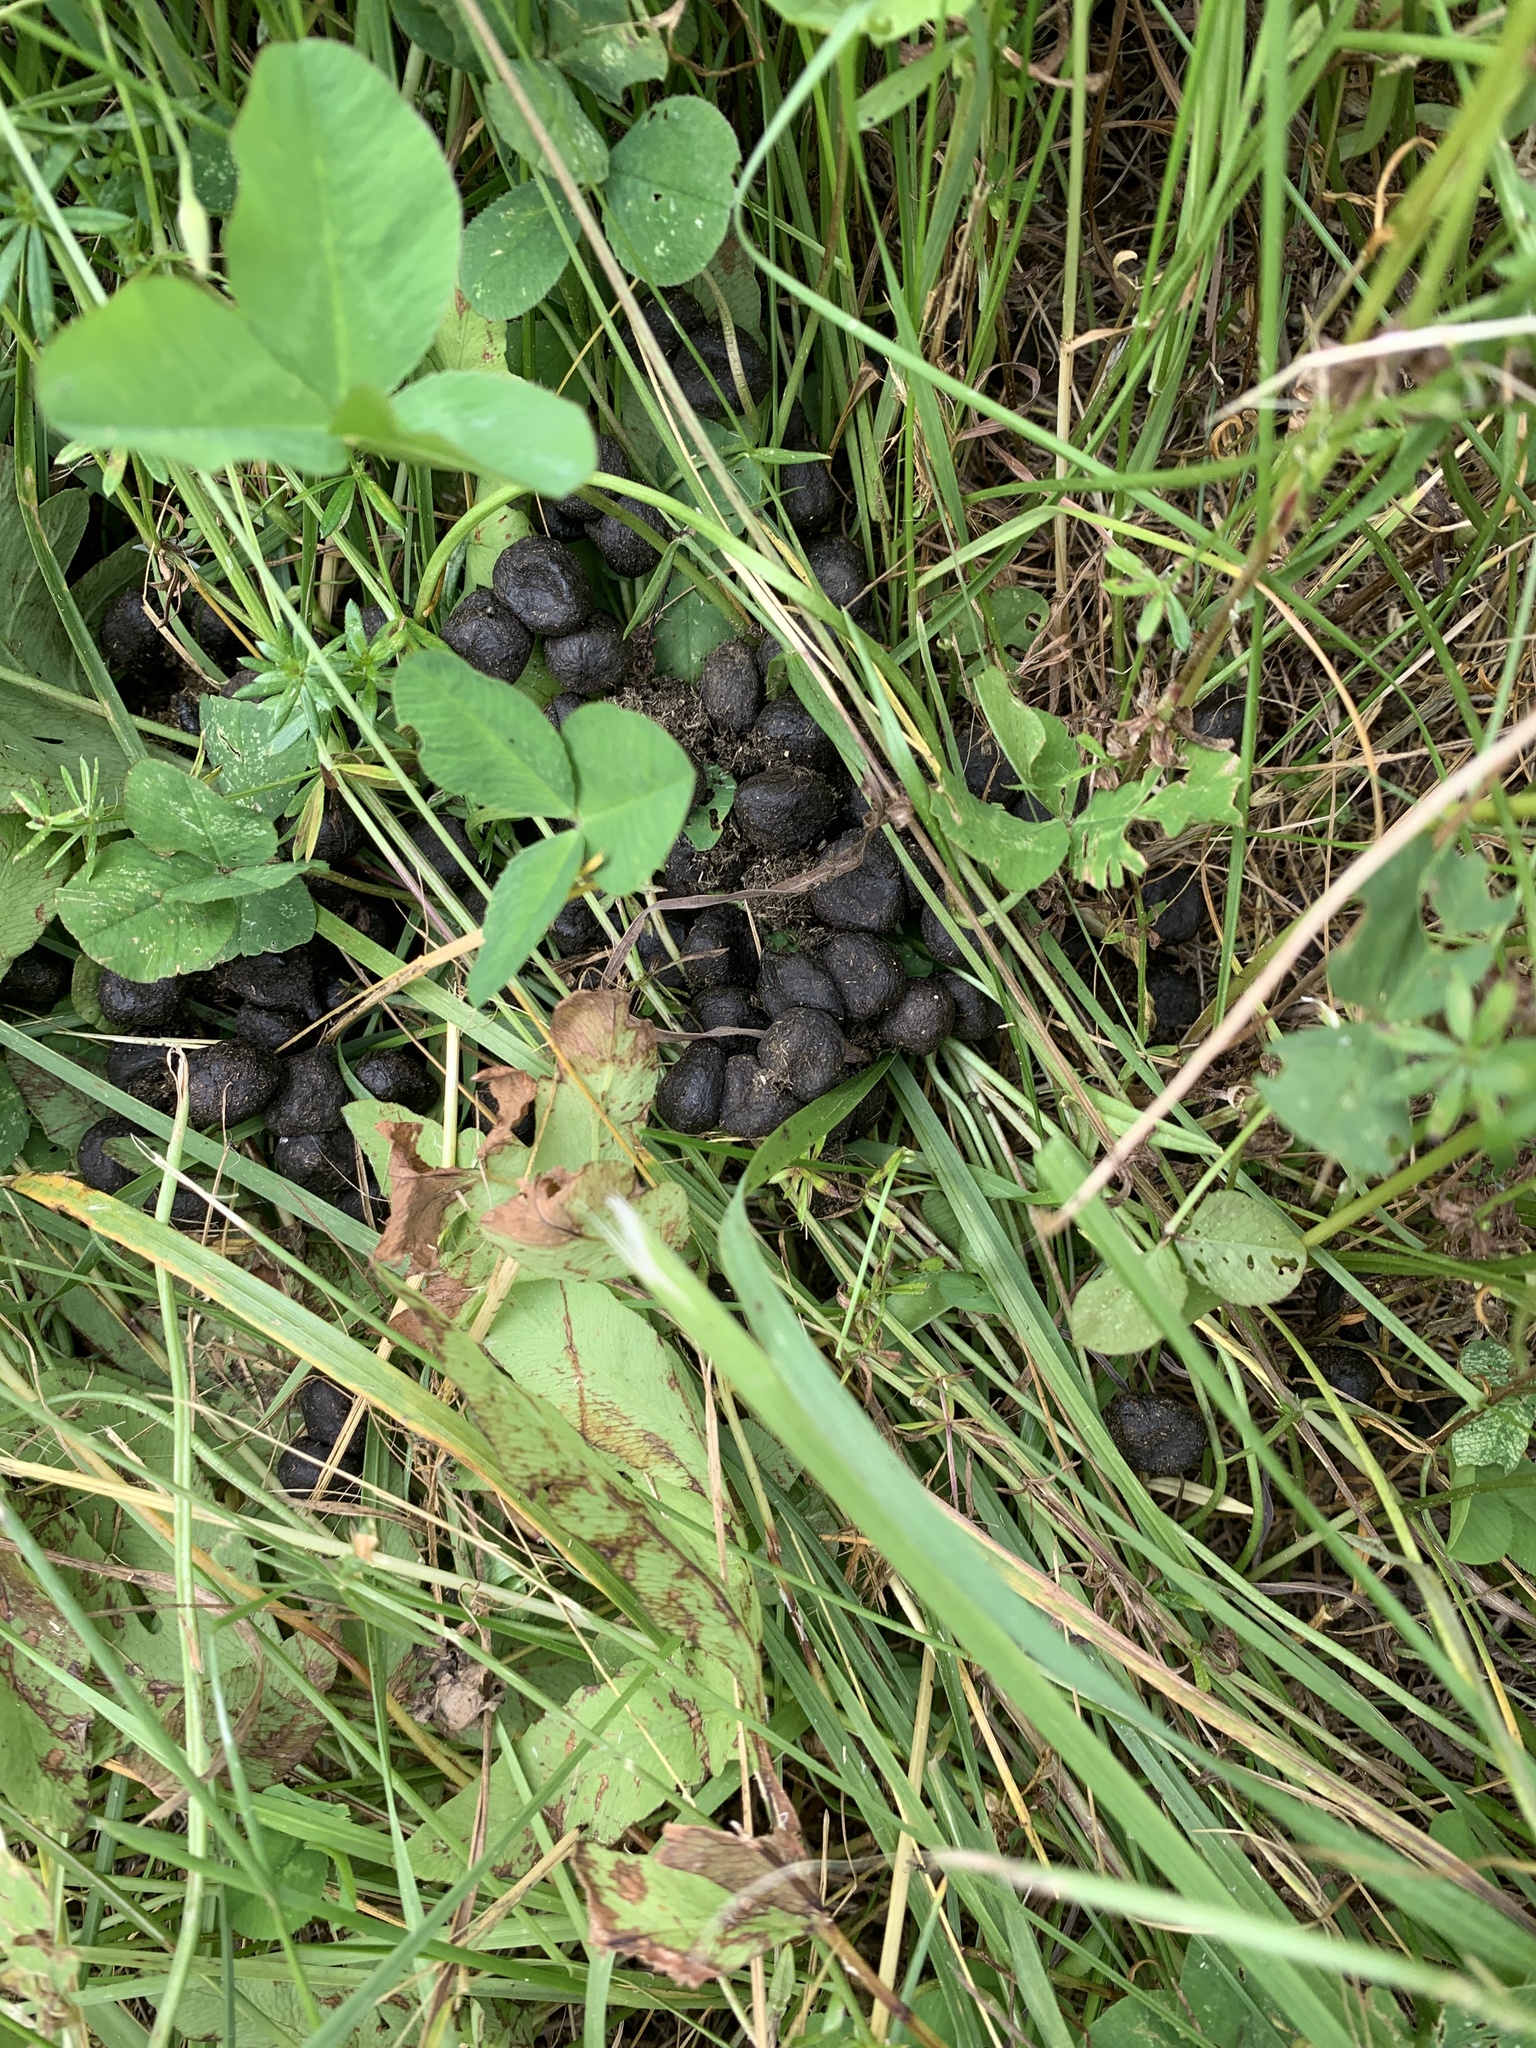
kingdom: Animalia
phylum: Chordata
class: Mammalia
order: Artiodactyla
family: Cervidae
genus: Odocoileus
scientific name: Odocoileus virginianus
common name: White-tailed deer
